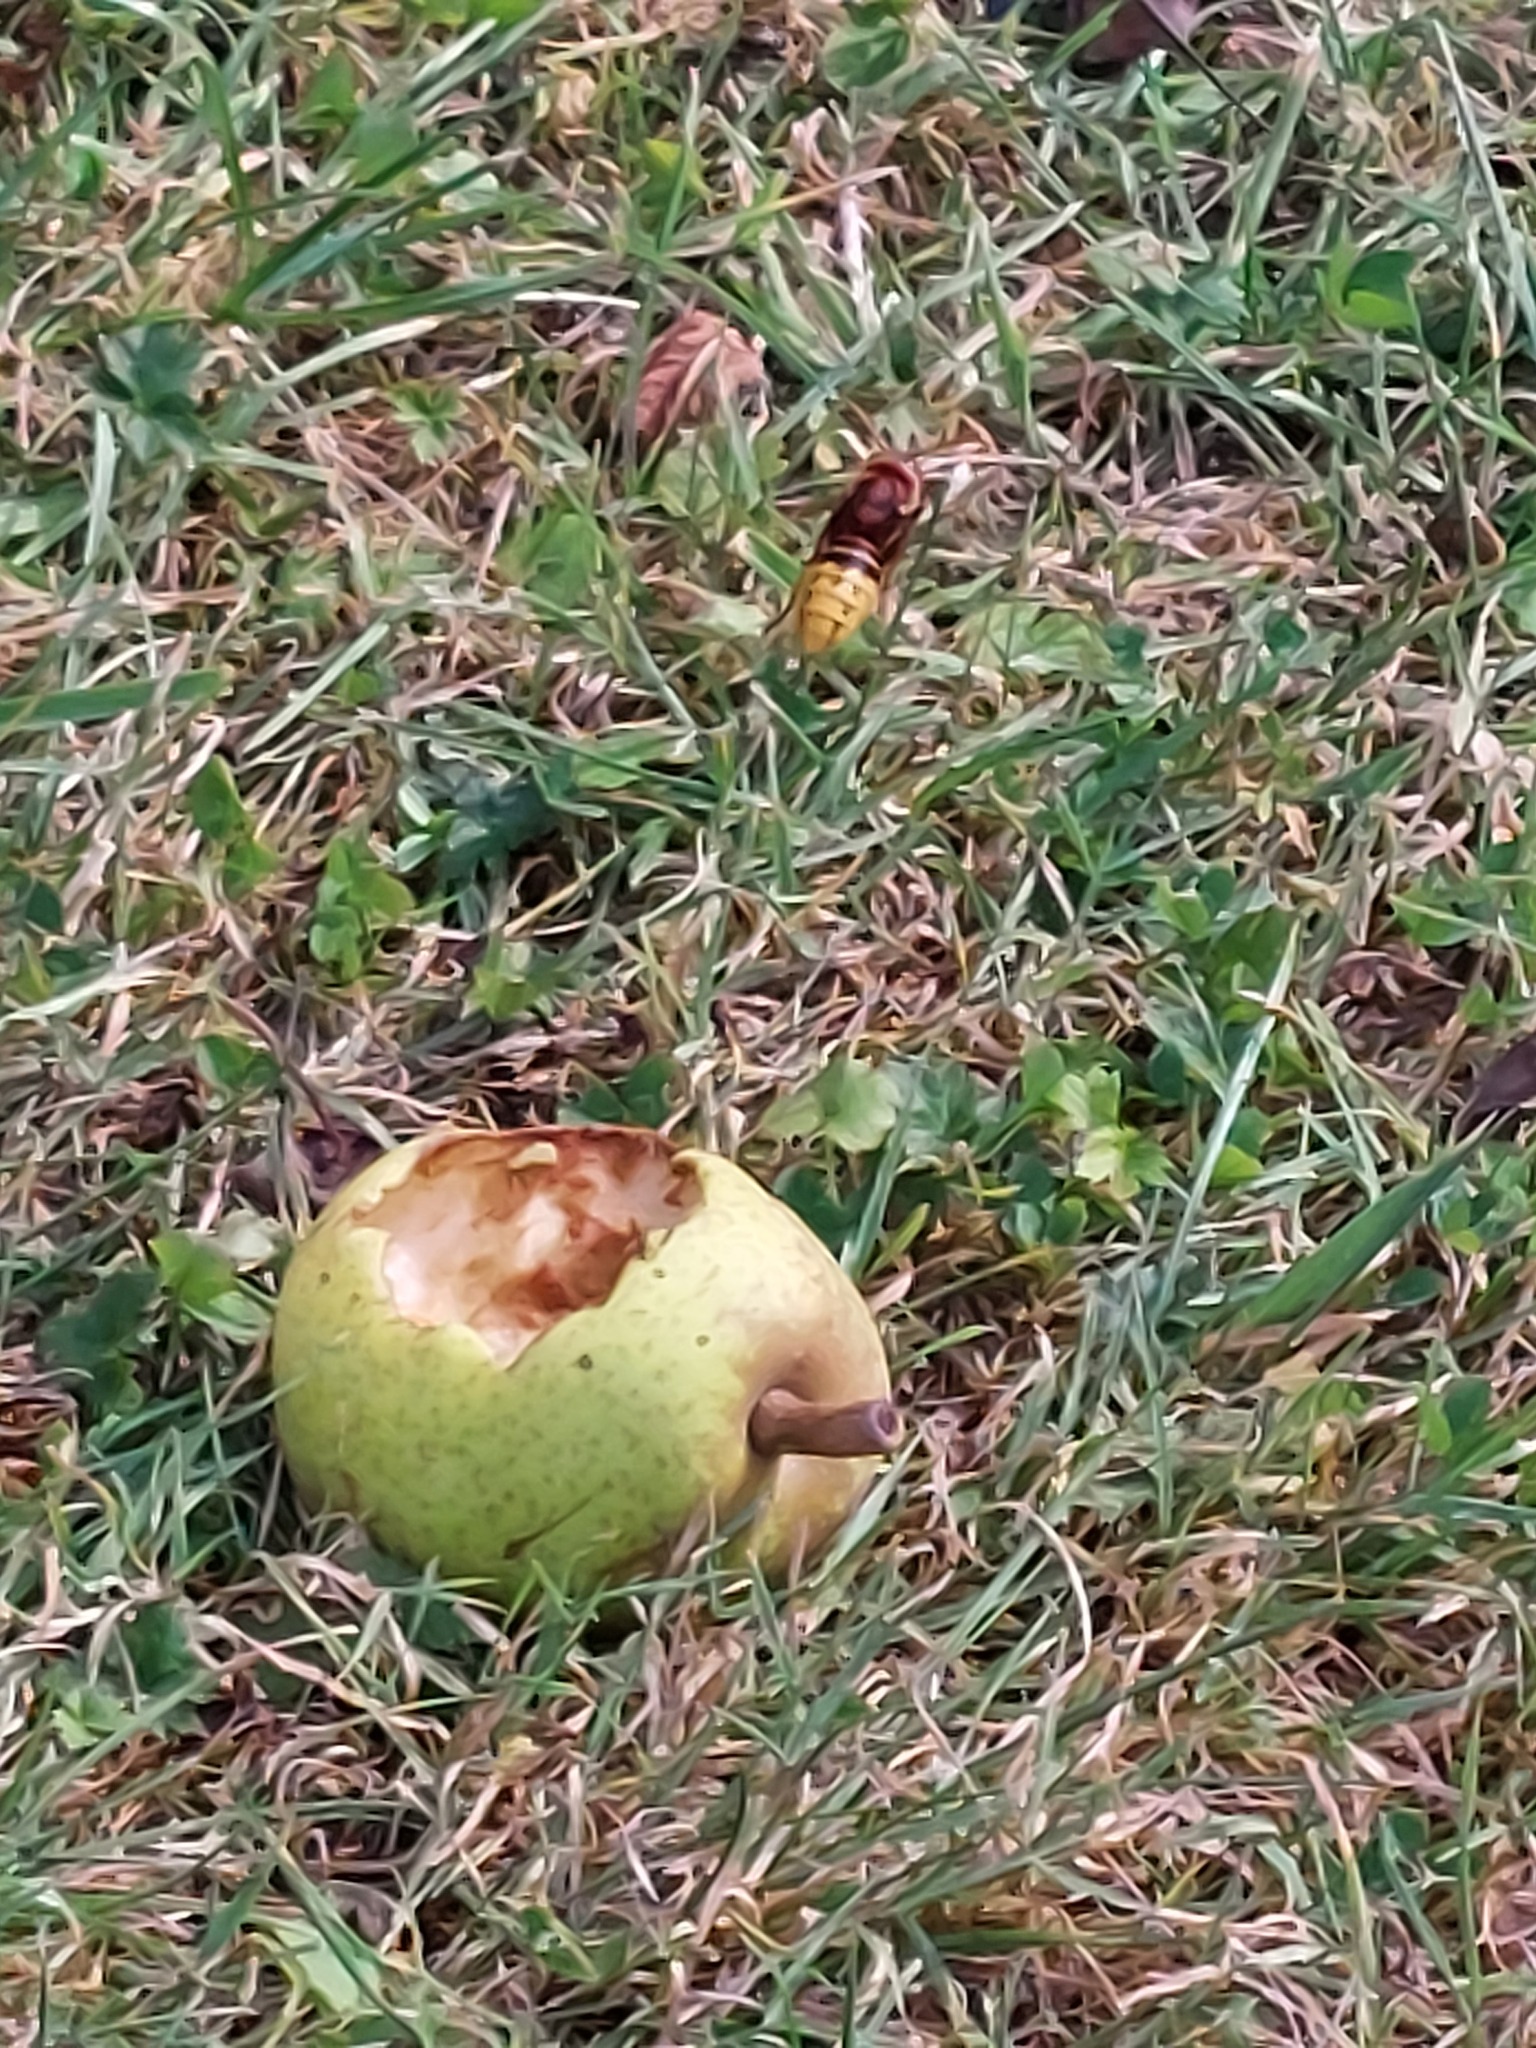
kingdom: Animalia
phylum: Arthropoda
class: Insecta
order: Hymenoptera
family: Vespidae
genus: Vespa
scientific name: Vespa crabro
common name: Hornet
